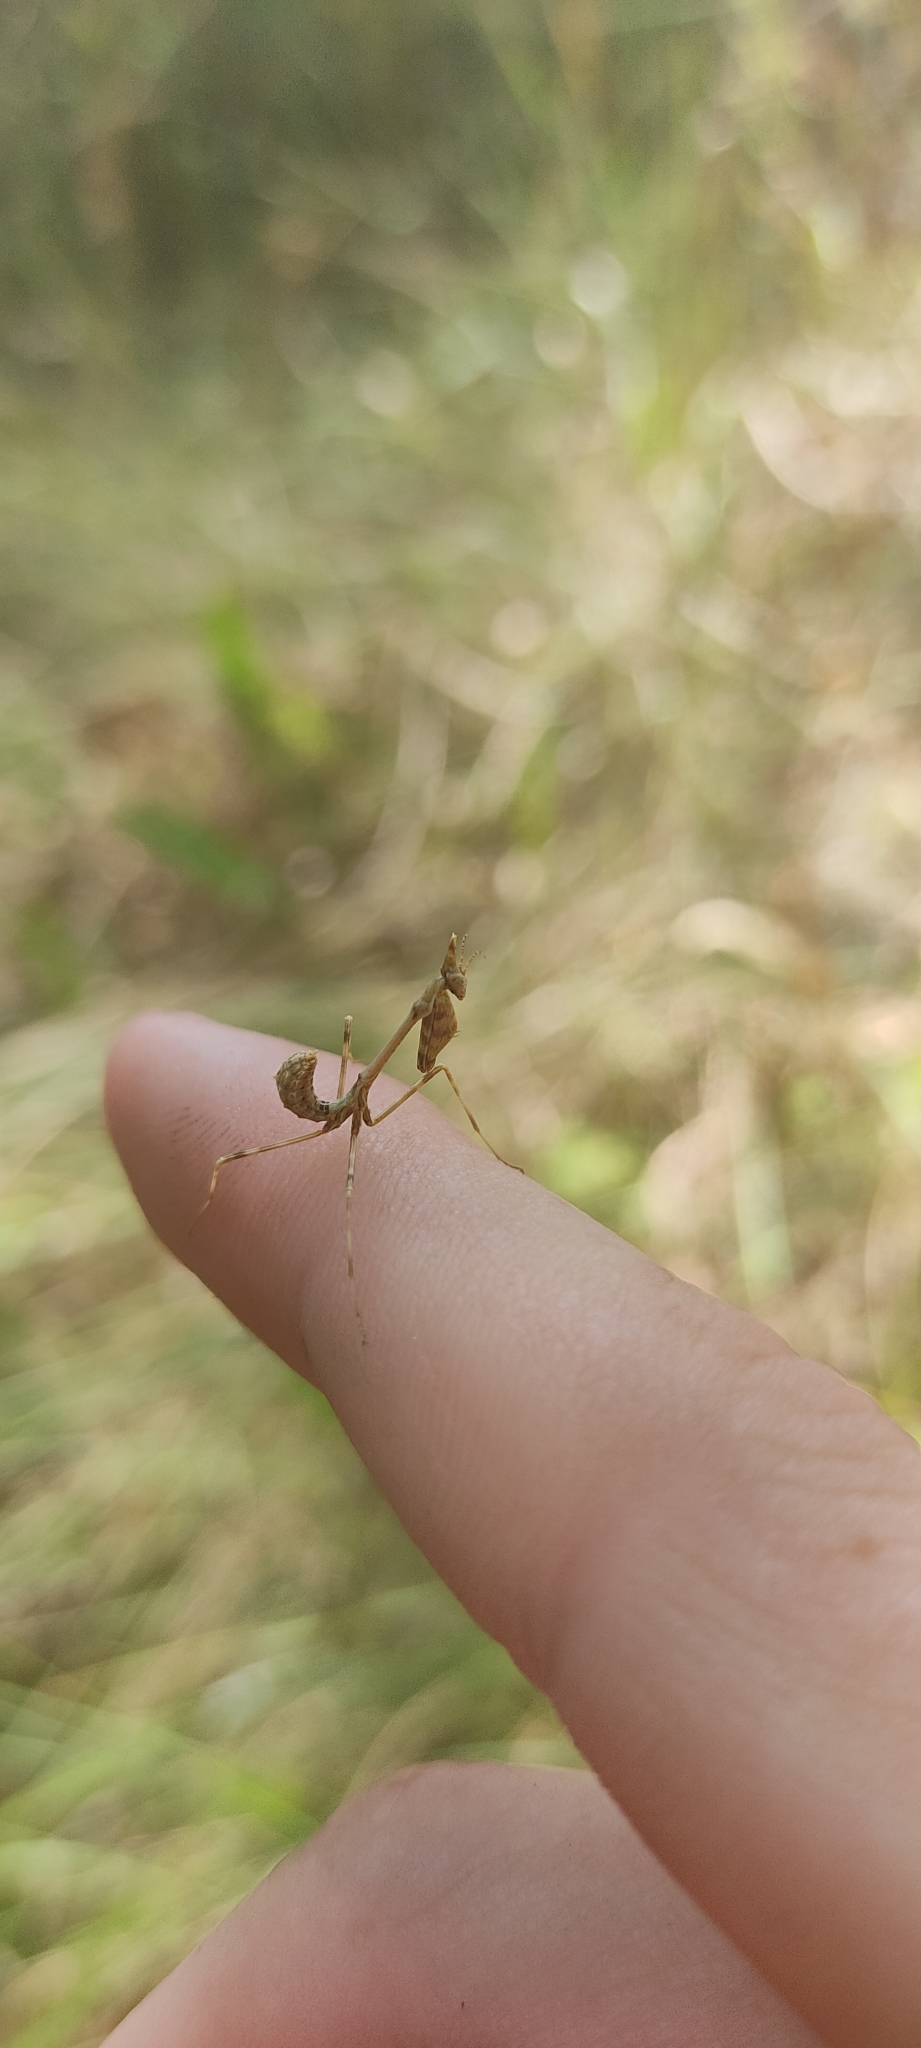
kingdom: Animalia
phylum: Arthropoda
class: Insecta
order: Mantodea
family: Empusidae
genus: Empusa
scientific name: Empusa pennata
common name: Conehead mantis
